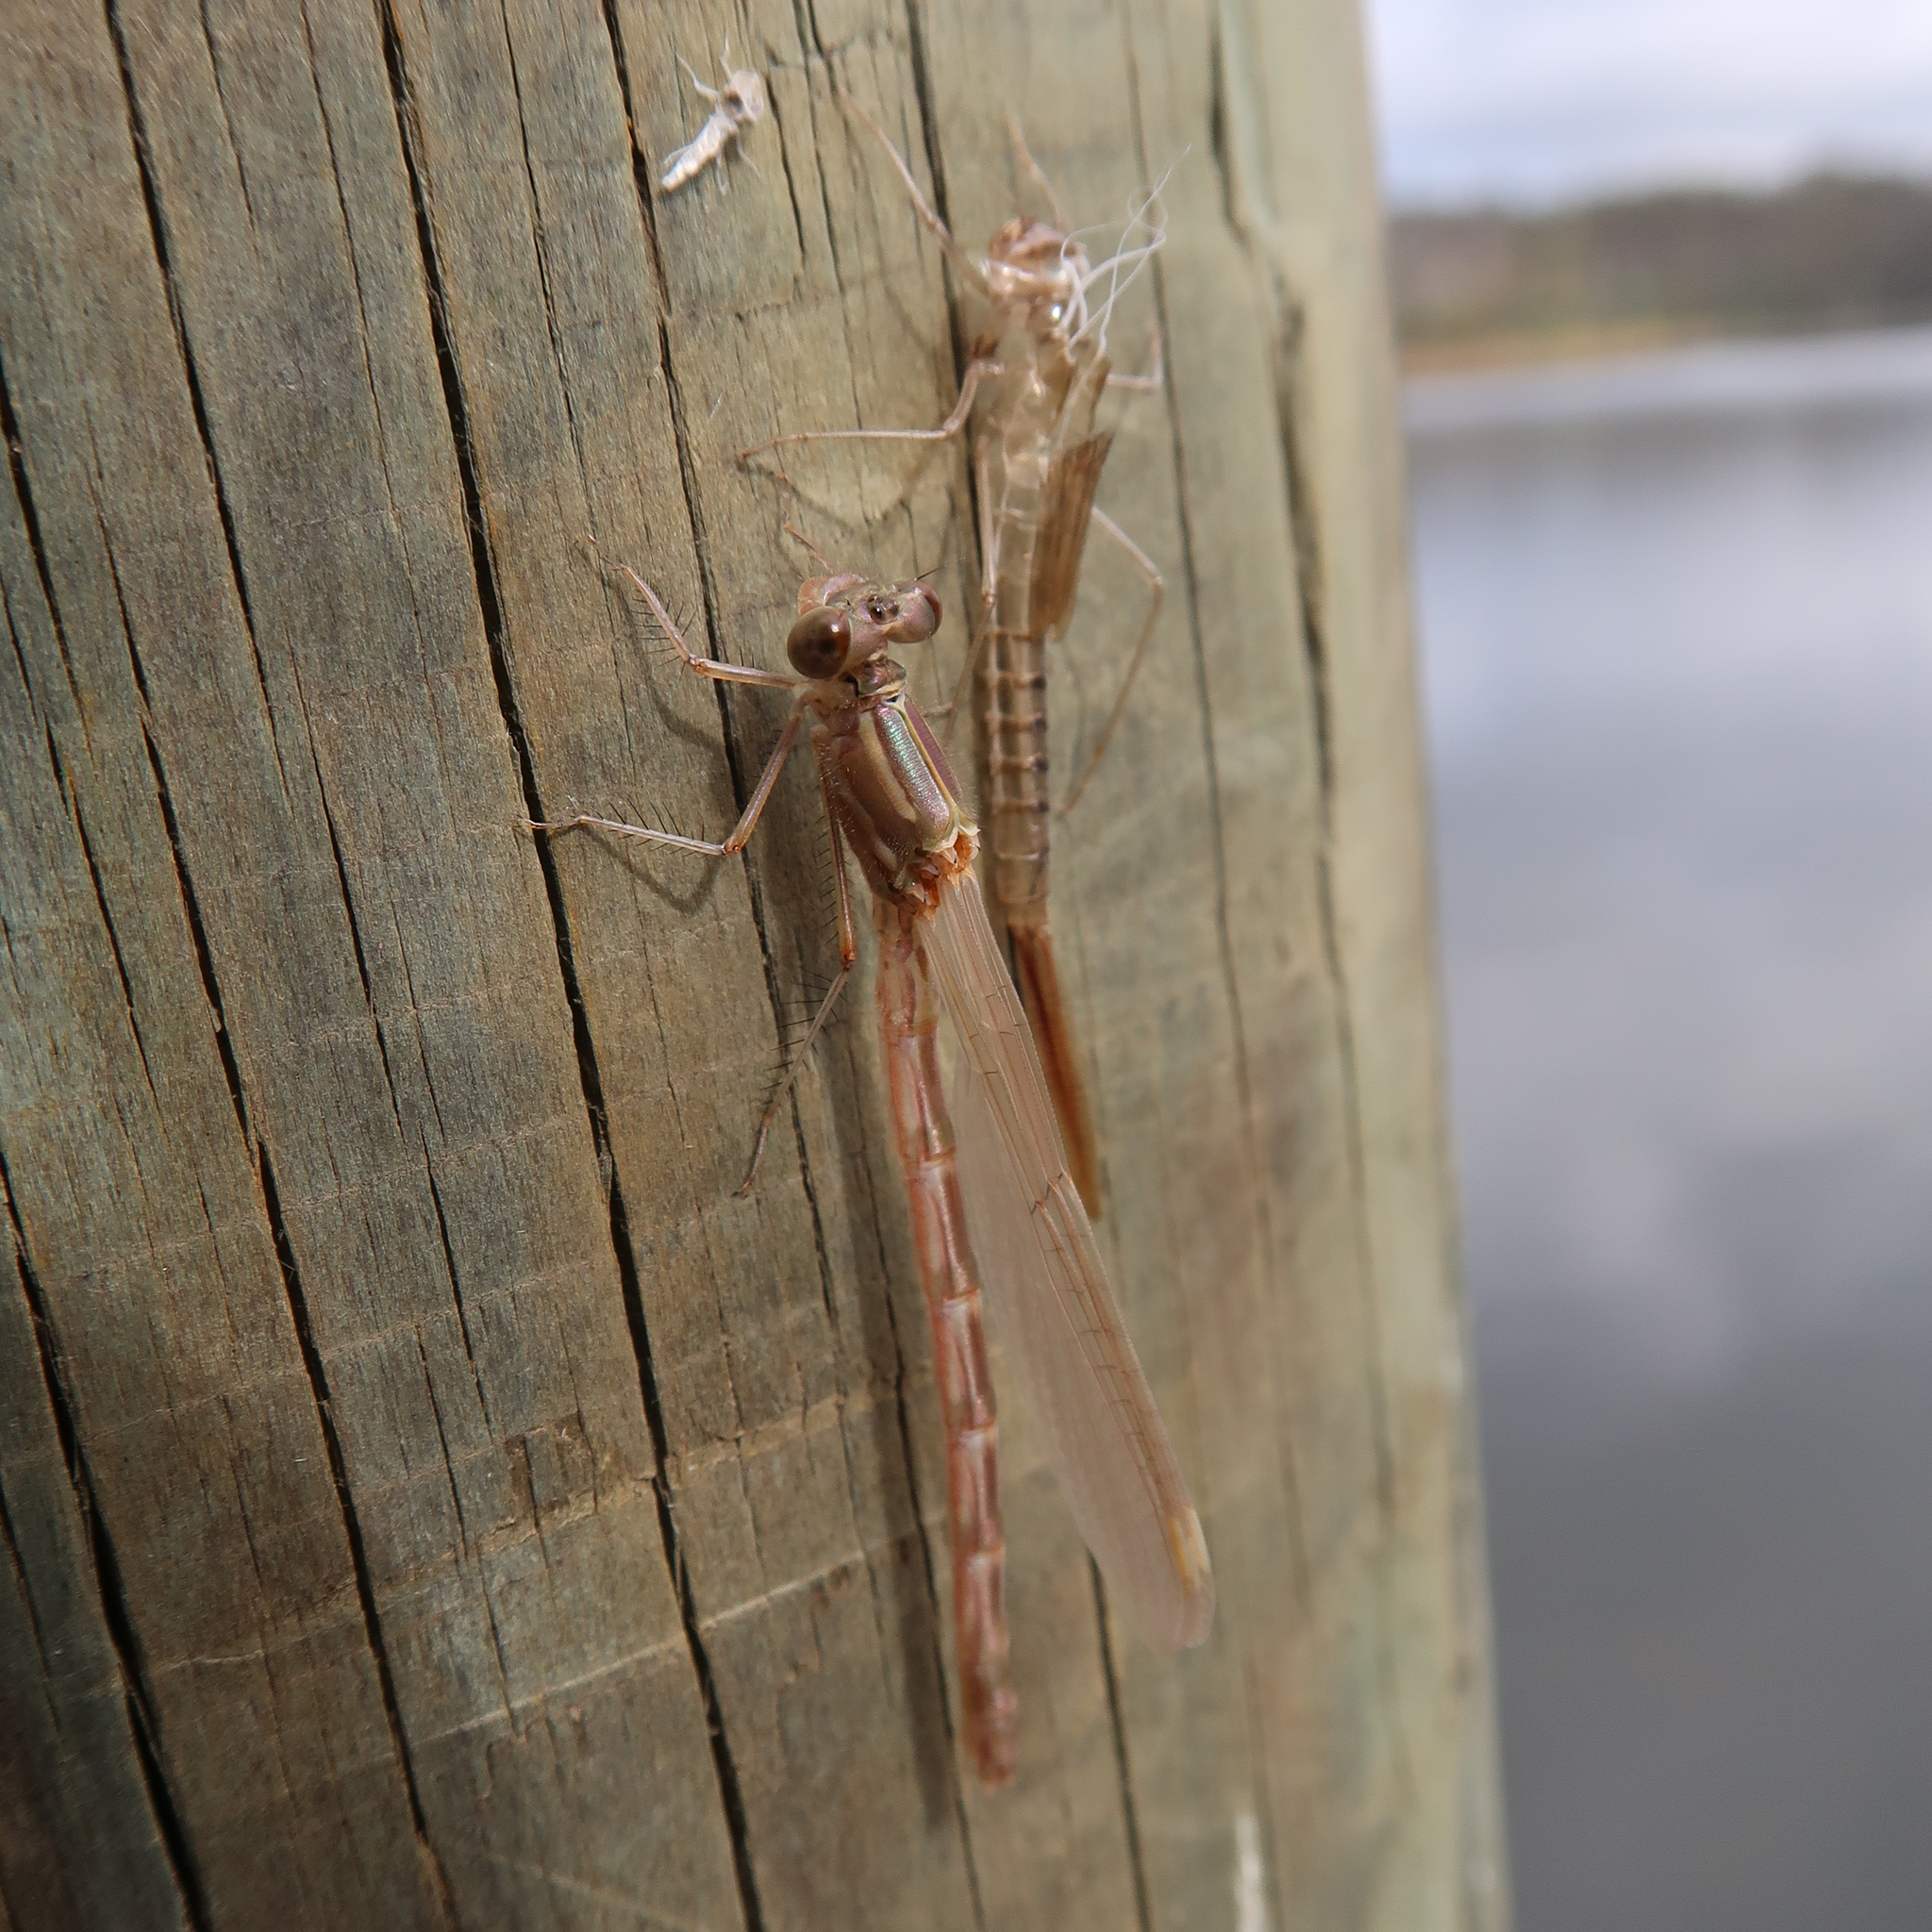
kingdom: Animalia
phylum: Arthropoda
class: Insecta
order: Odonata
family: Lestidae
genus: Austrolestes
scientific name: Austrolestes annulosus
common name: Blue ringtail
